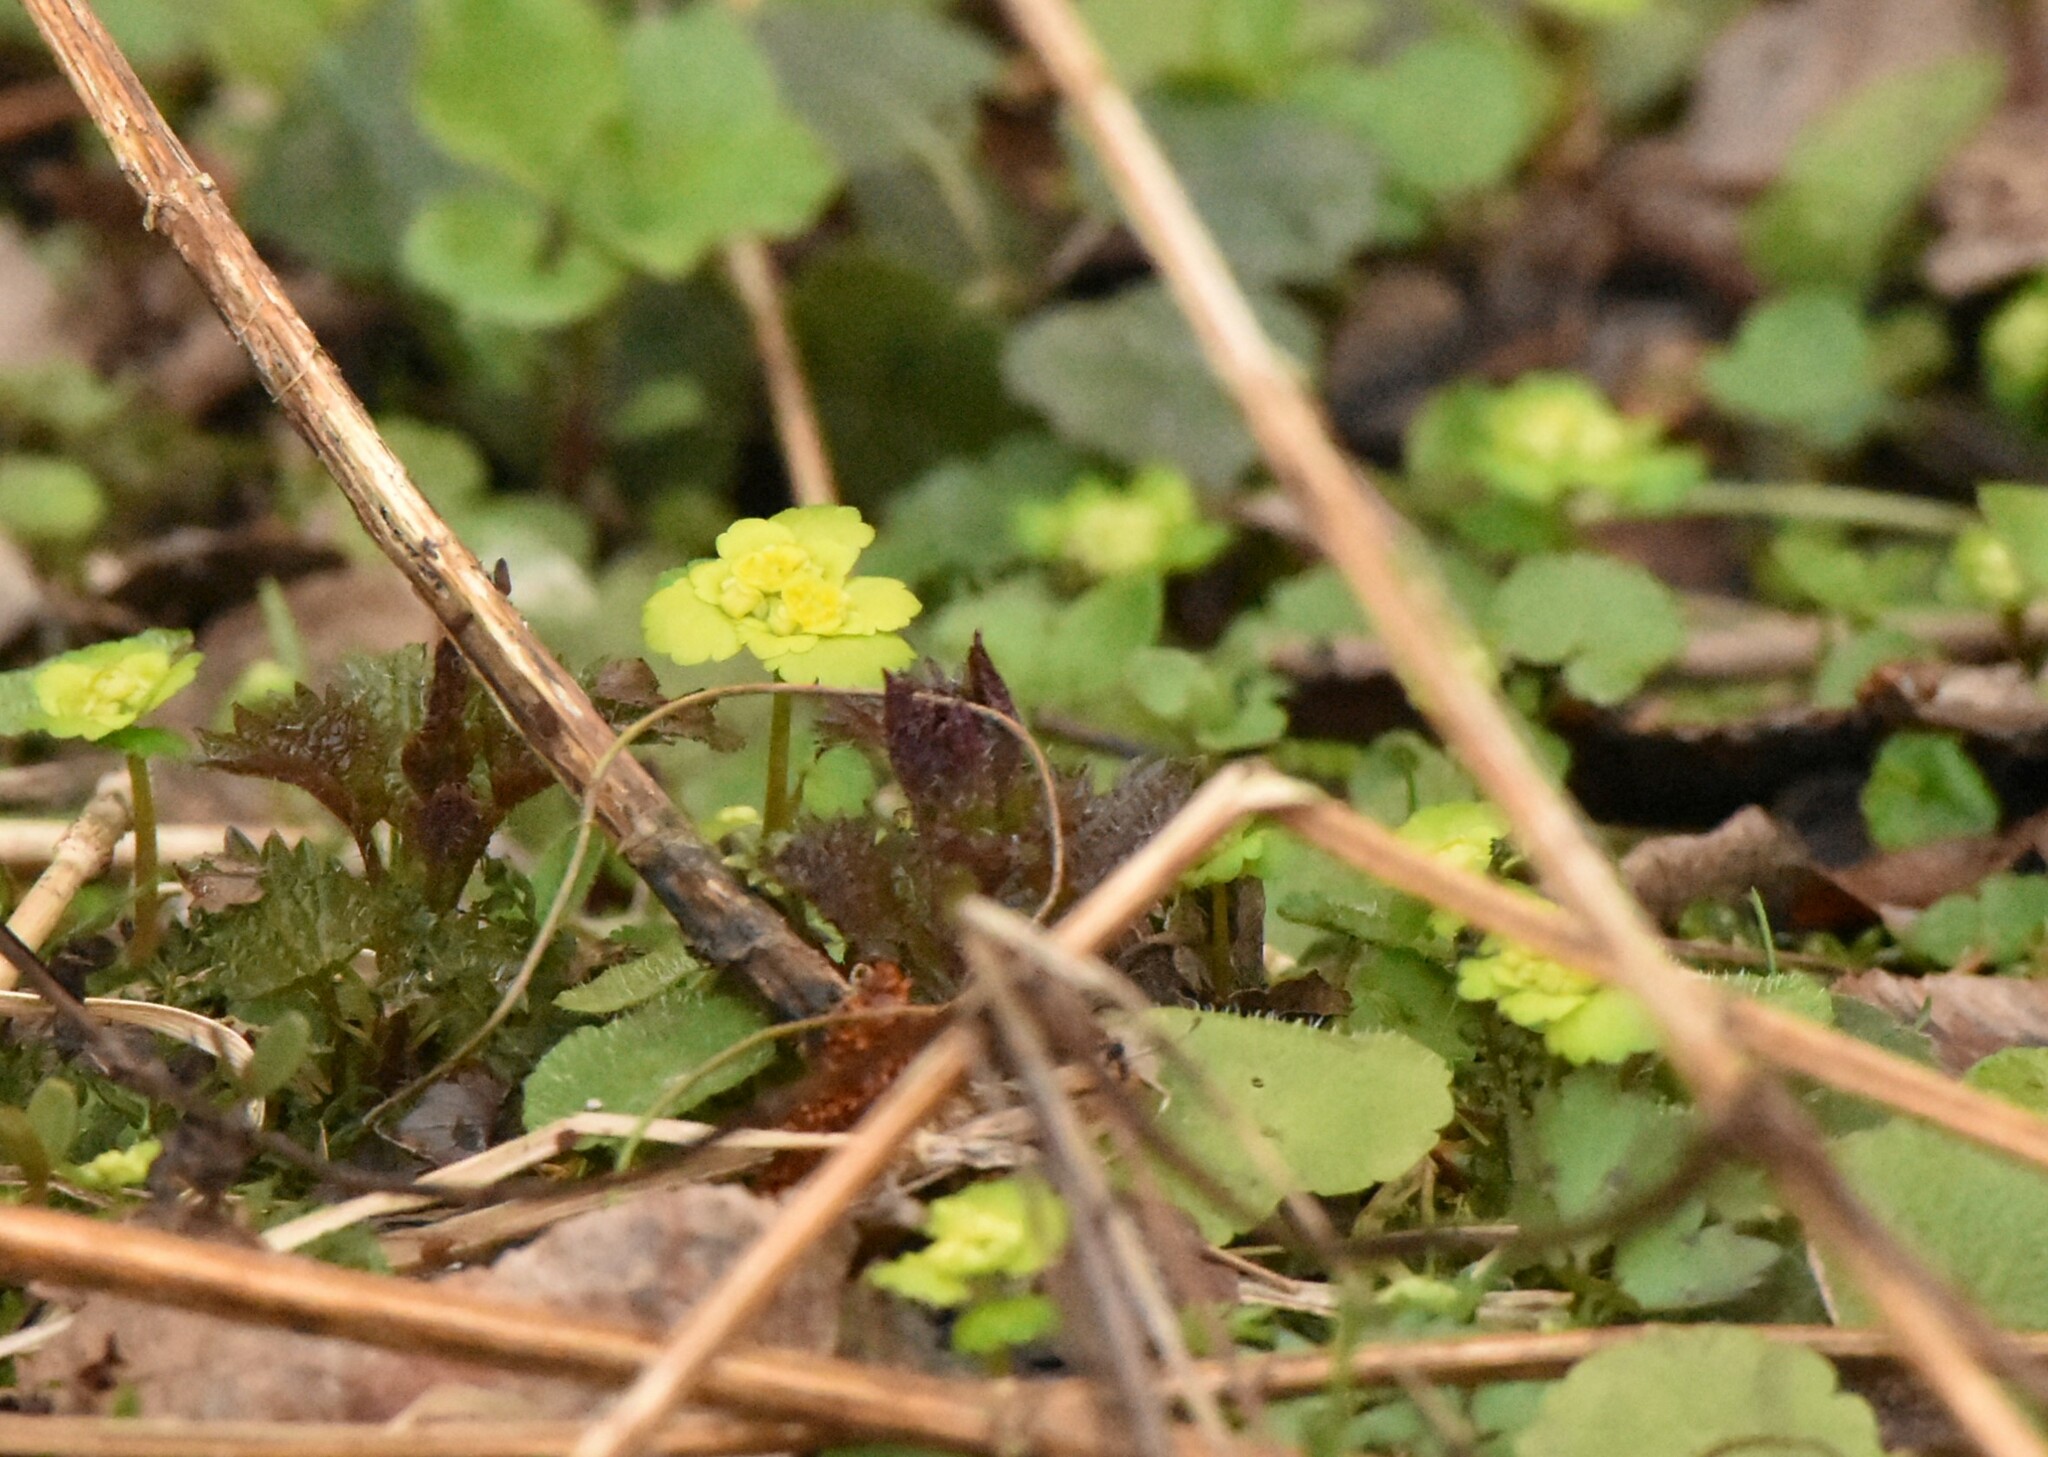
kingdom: Plantae
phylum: Tracheophyta
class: Magnoliopsida
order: Saxifragales
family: Saxifragaceae
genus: Chrysosplenium
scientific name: Chrysosplenium alternifolium
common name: Alternate-leaved golden-saxifrage
